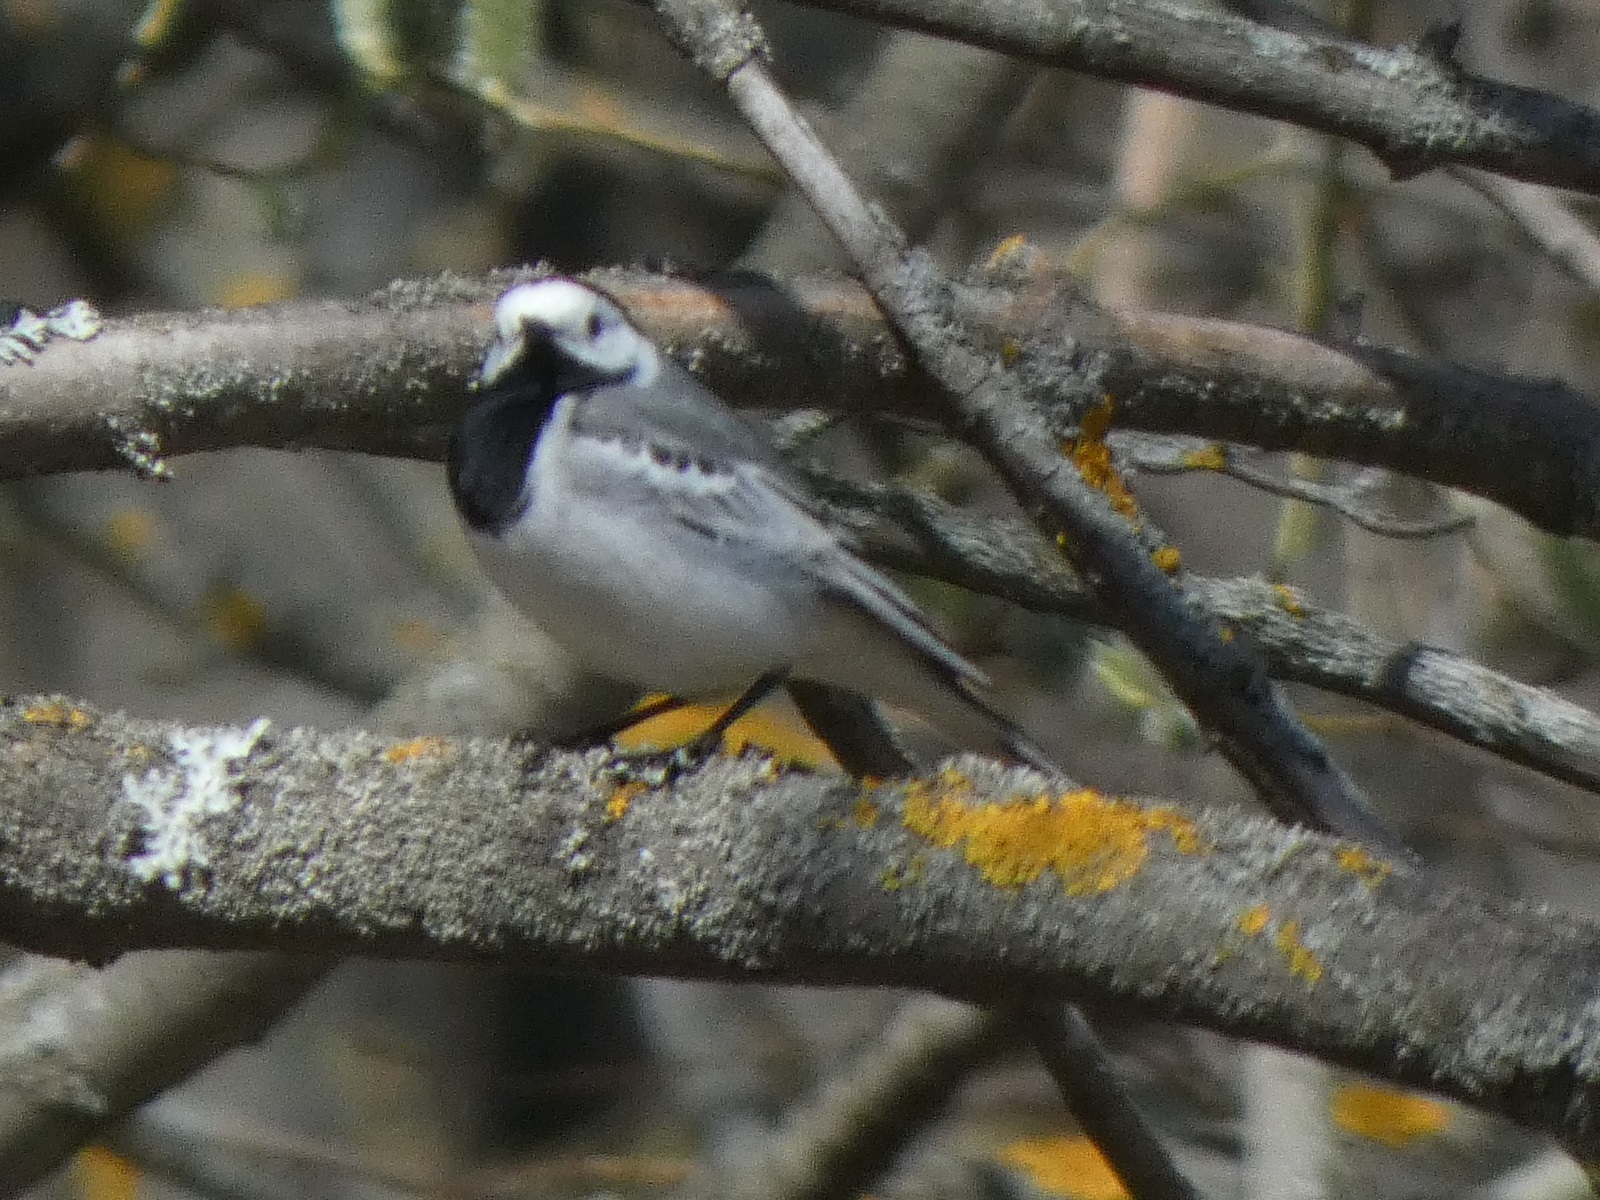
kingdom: Animalia
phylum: Chordata
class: Aves
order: Passeriformes
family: Motacillidae
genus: Motacilla
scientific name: Motacilla alba
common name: White wagtail
